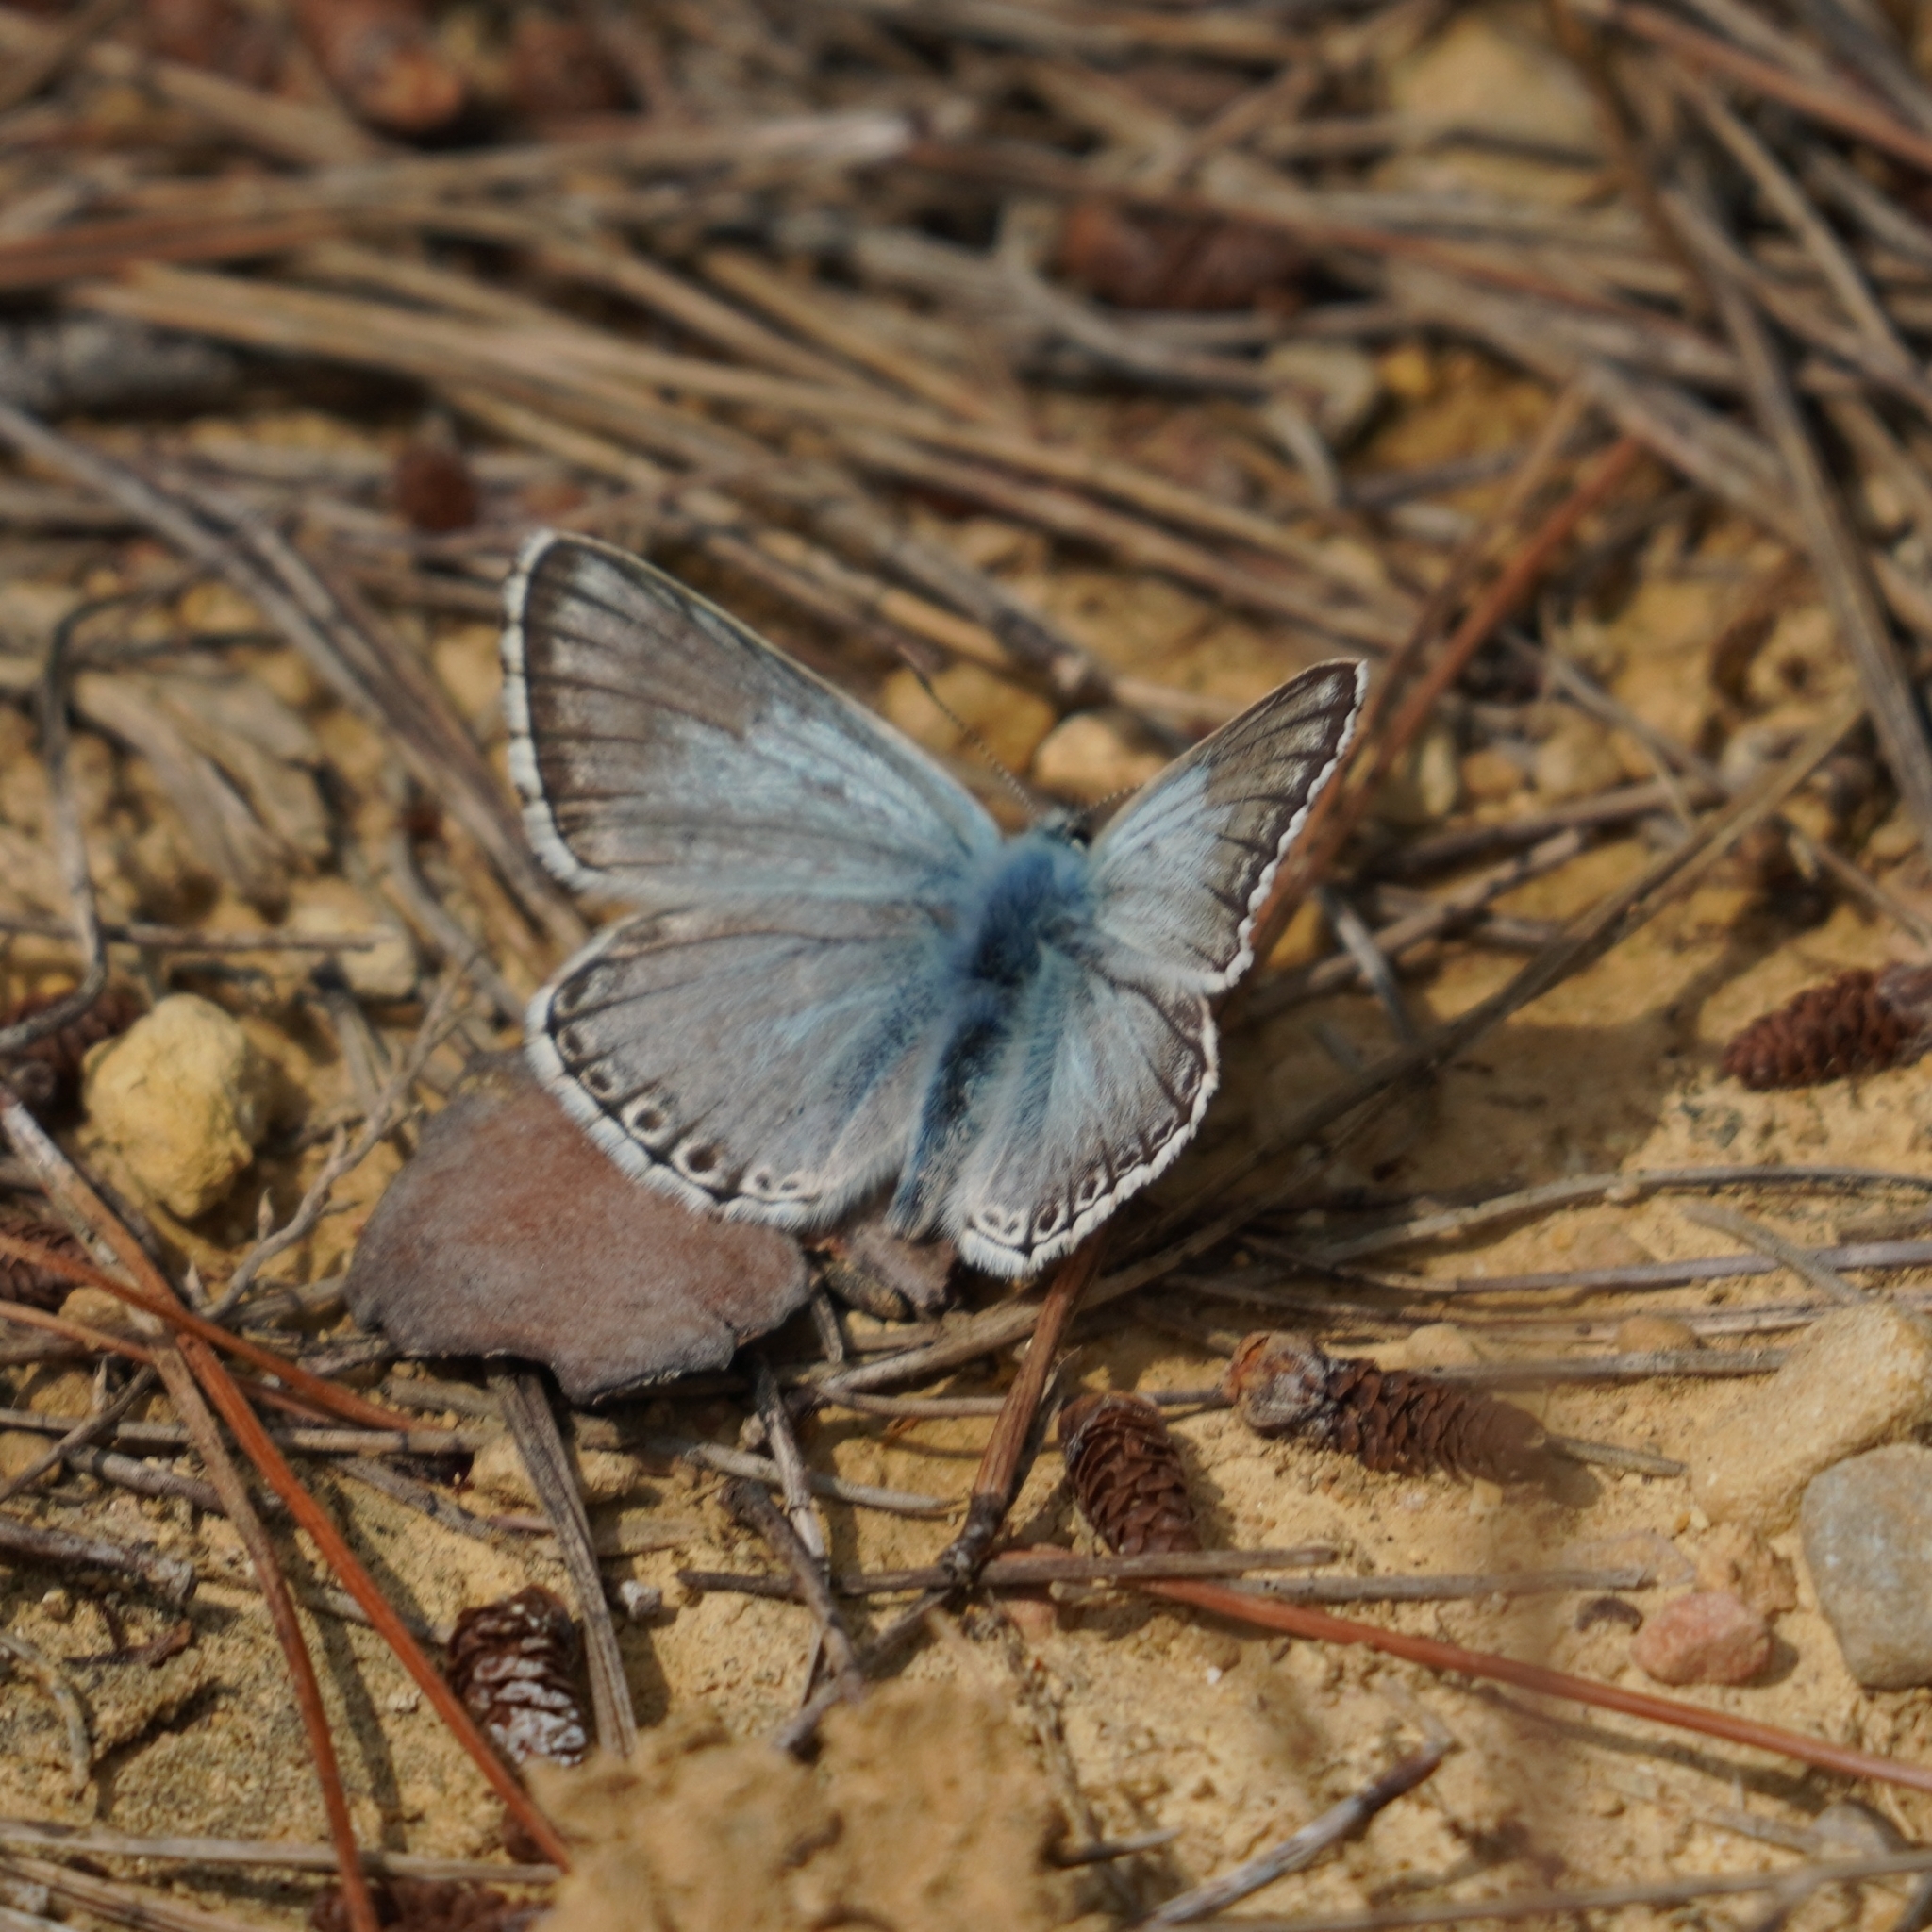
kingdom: Animalia
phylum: Arthropoda
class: Insecta
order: Lepidoptera
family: Lycaenidae
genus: Lysandra
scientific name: Lysandra hispana
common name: Provence chalkhill blue
